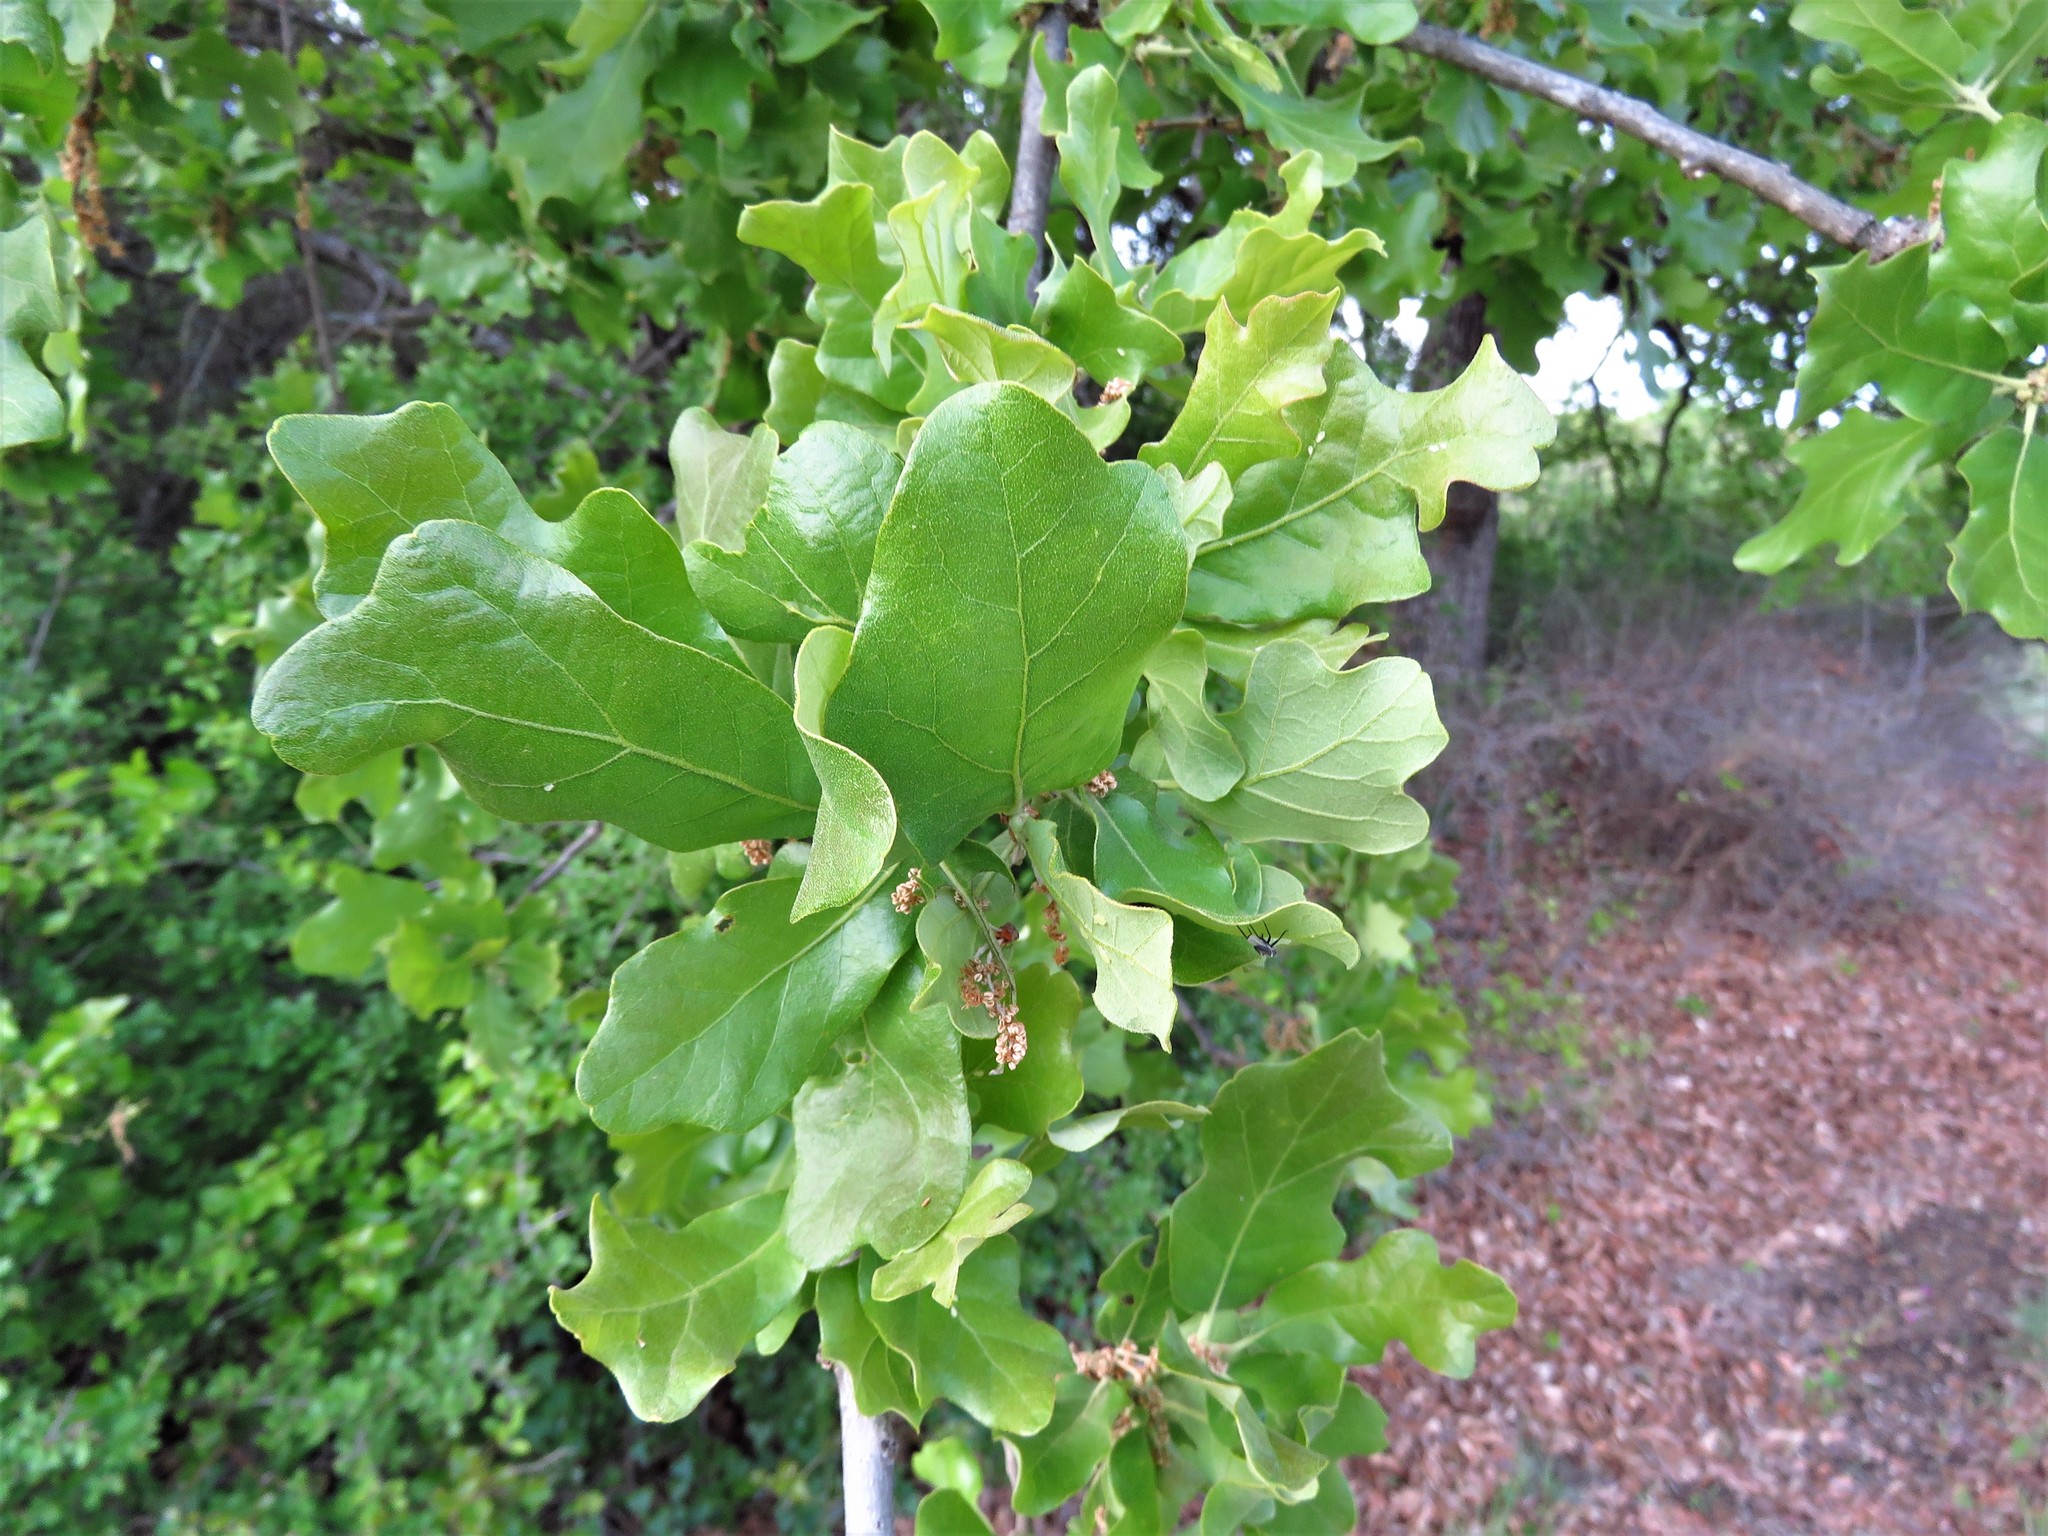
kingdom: Plantae
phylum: Tracheophyta
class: Magnoliopsida
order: Fagales
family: Fagaceae
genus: Quercus
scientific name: Quercus stellata
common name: Post oak
